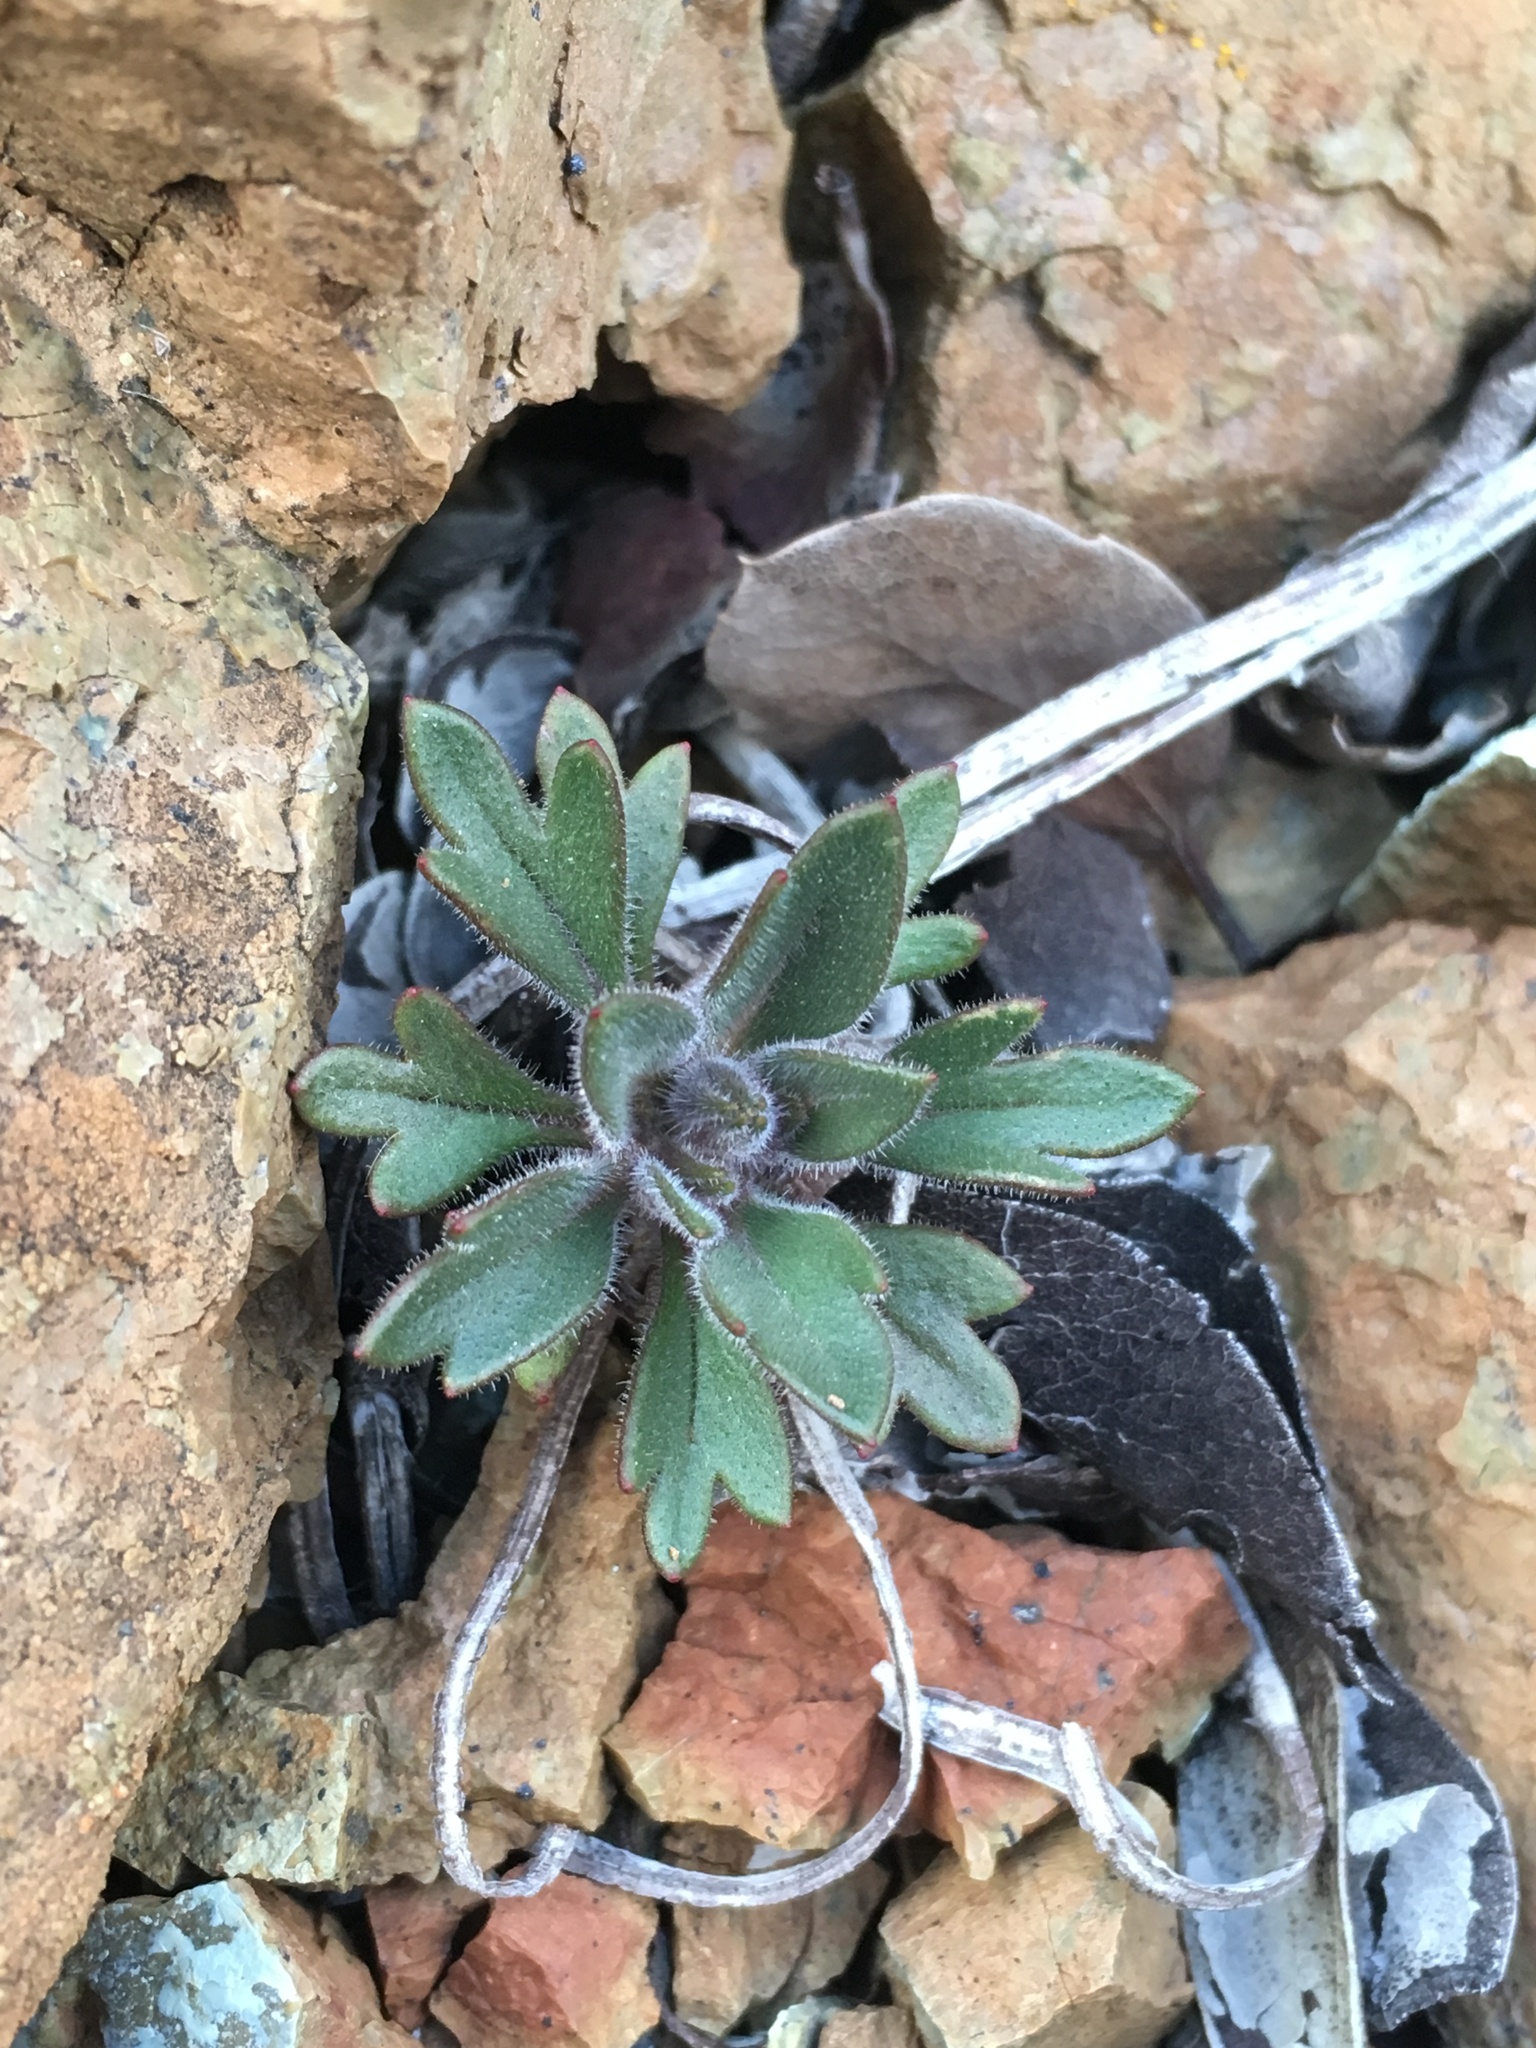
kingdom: Plantae
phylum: Tracheophyta
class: Magnoliopsida
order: Ericales
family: Polemoniaceae
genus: Collomia
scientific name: Collomia diversifolia
